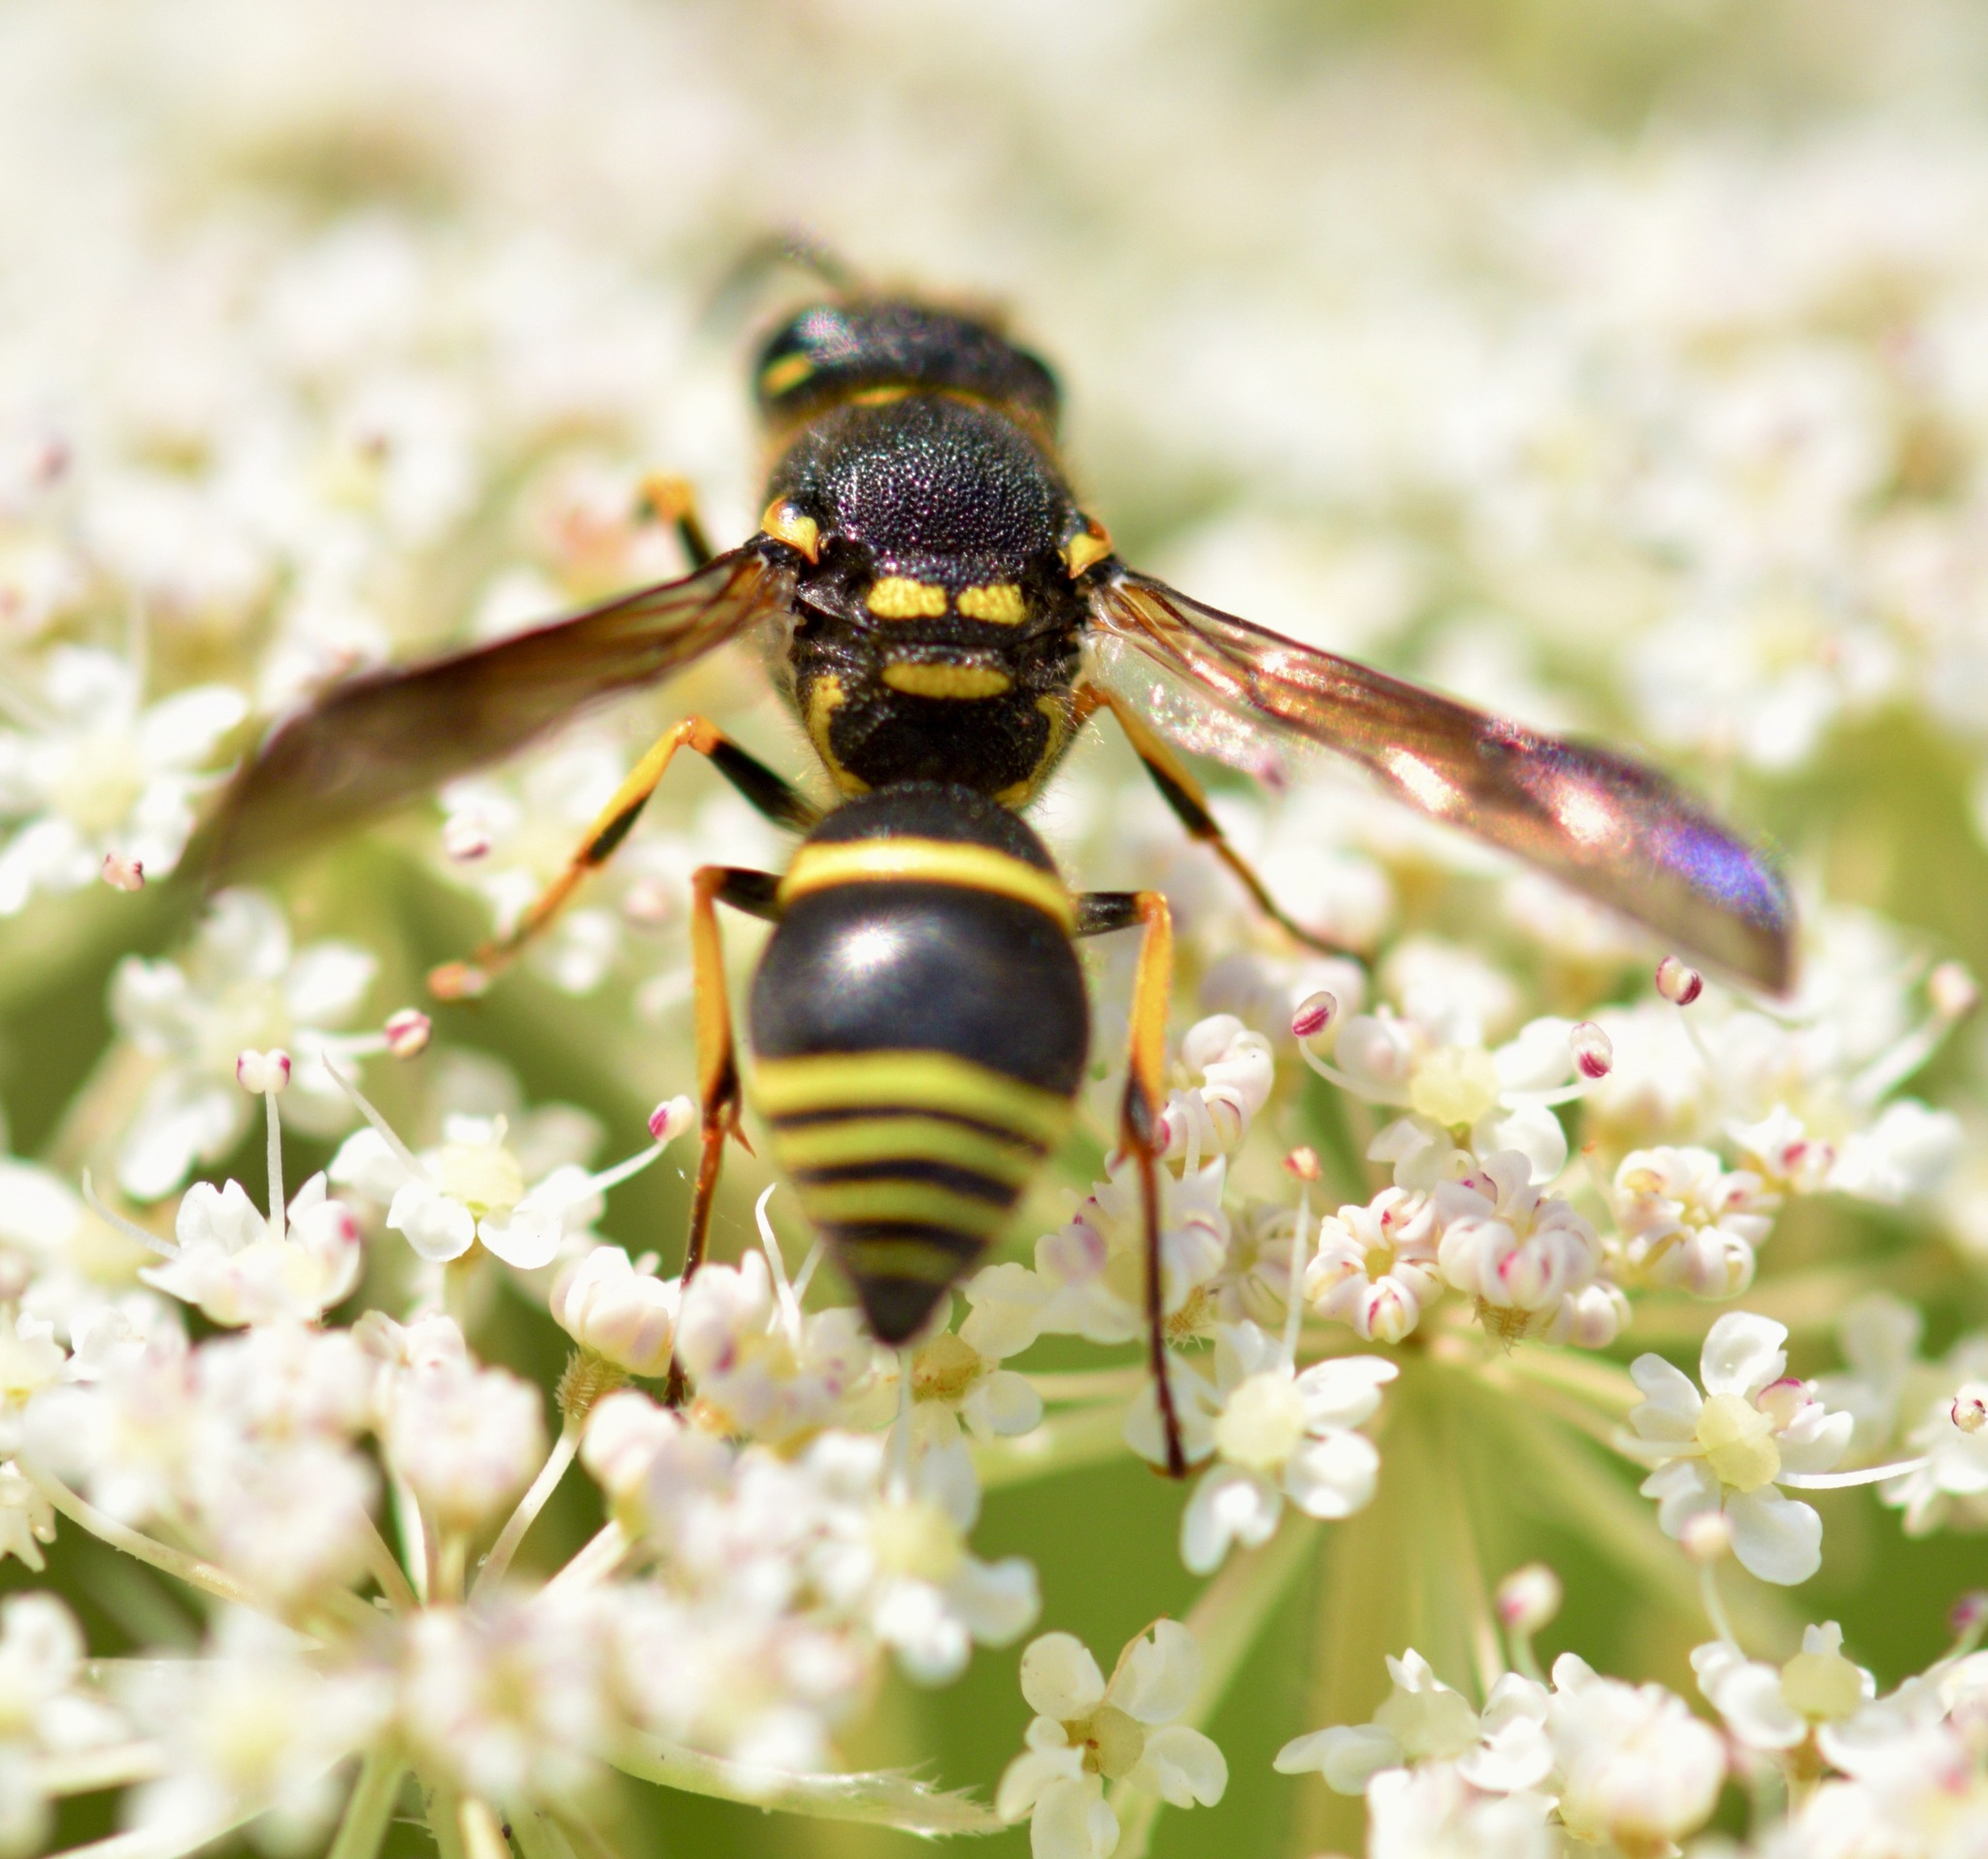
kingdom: Animalia
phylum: Arthropoda
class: Insecta
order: Hymenoptera
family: Vespidae
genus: Ancistrocerus
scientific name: Ancistrocerus catskill
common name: Vespid wasp
